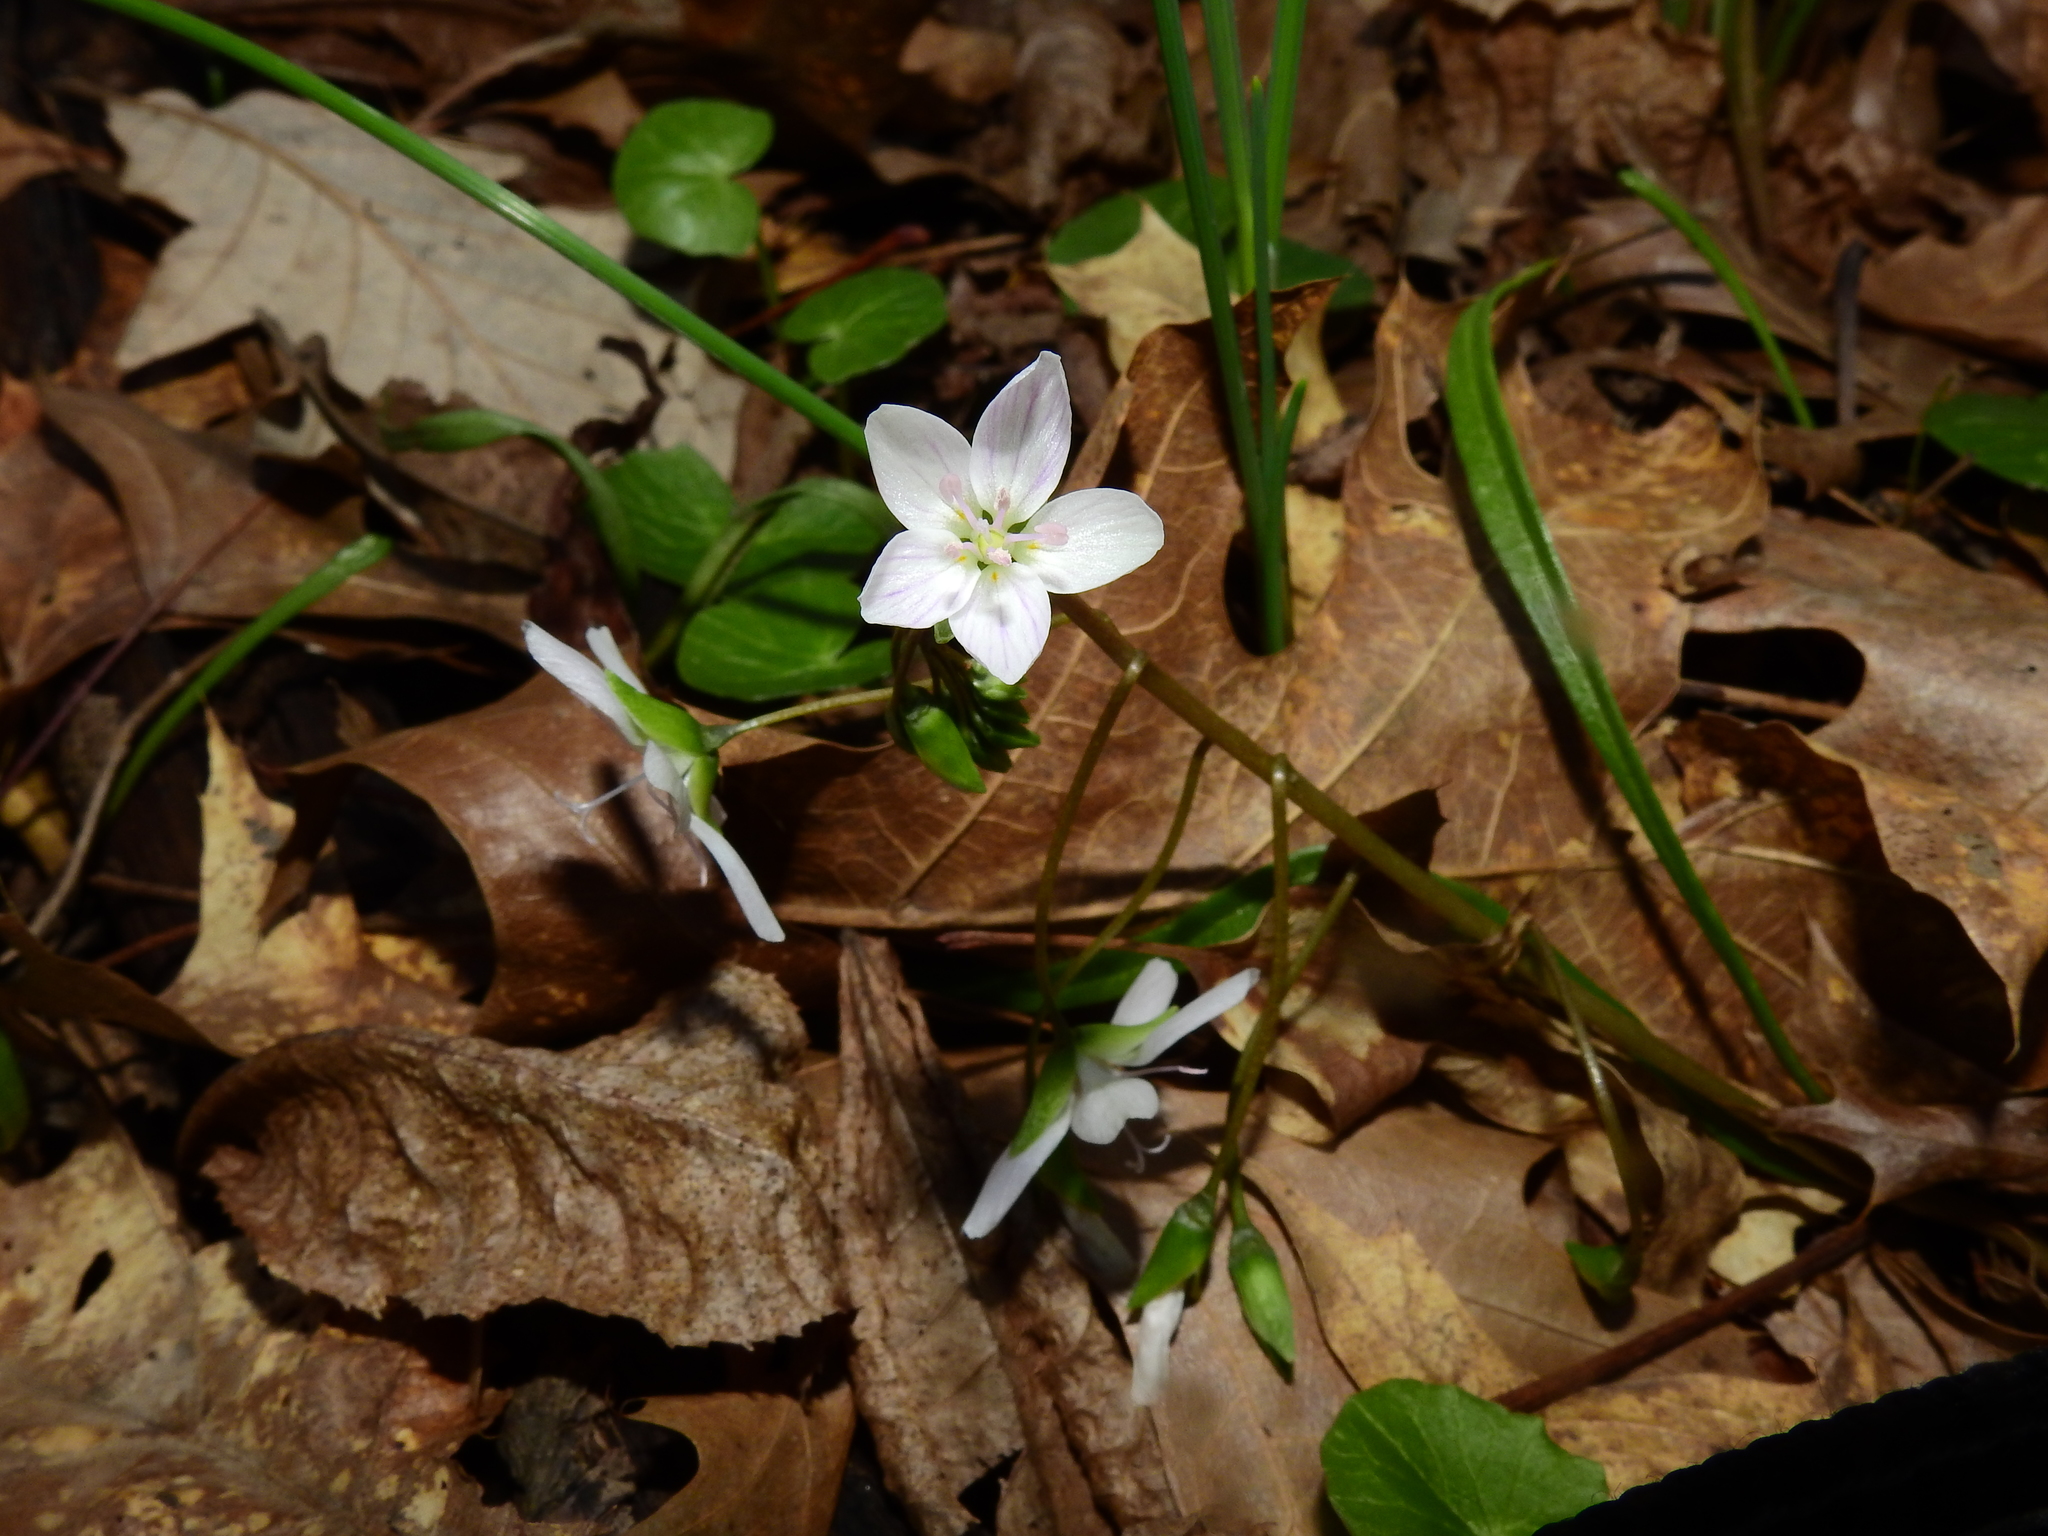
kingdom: Plantae
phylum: Tracheophyta
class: Magnoliopsida
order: Caryophyllales
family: Montiaceae
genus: Claytonia
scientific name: Claytonia virginica
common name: Virginia springbeauty
